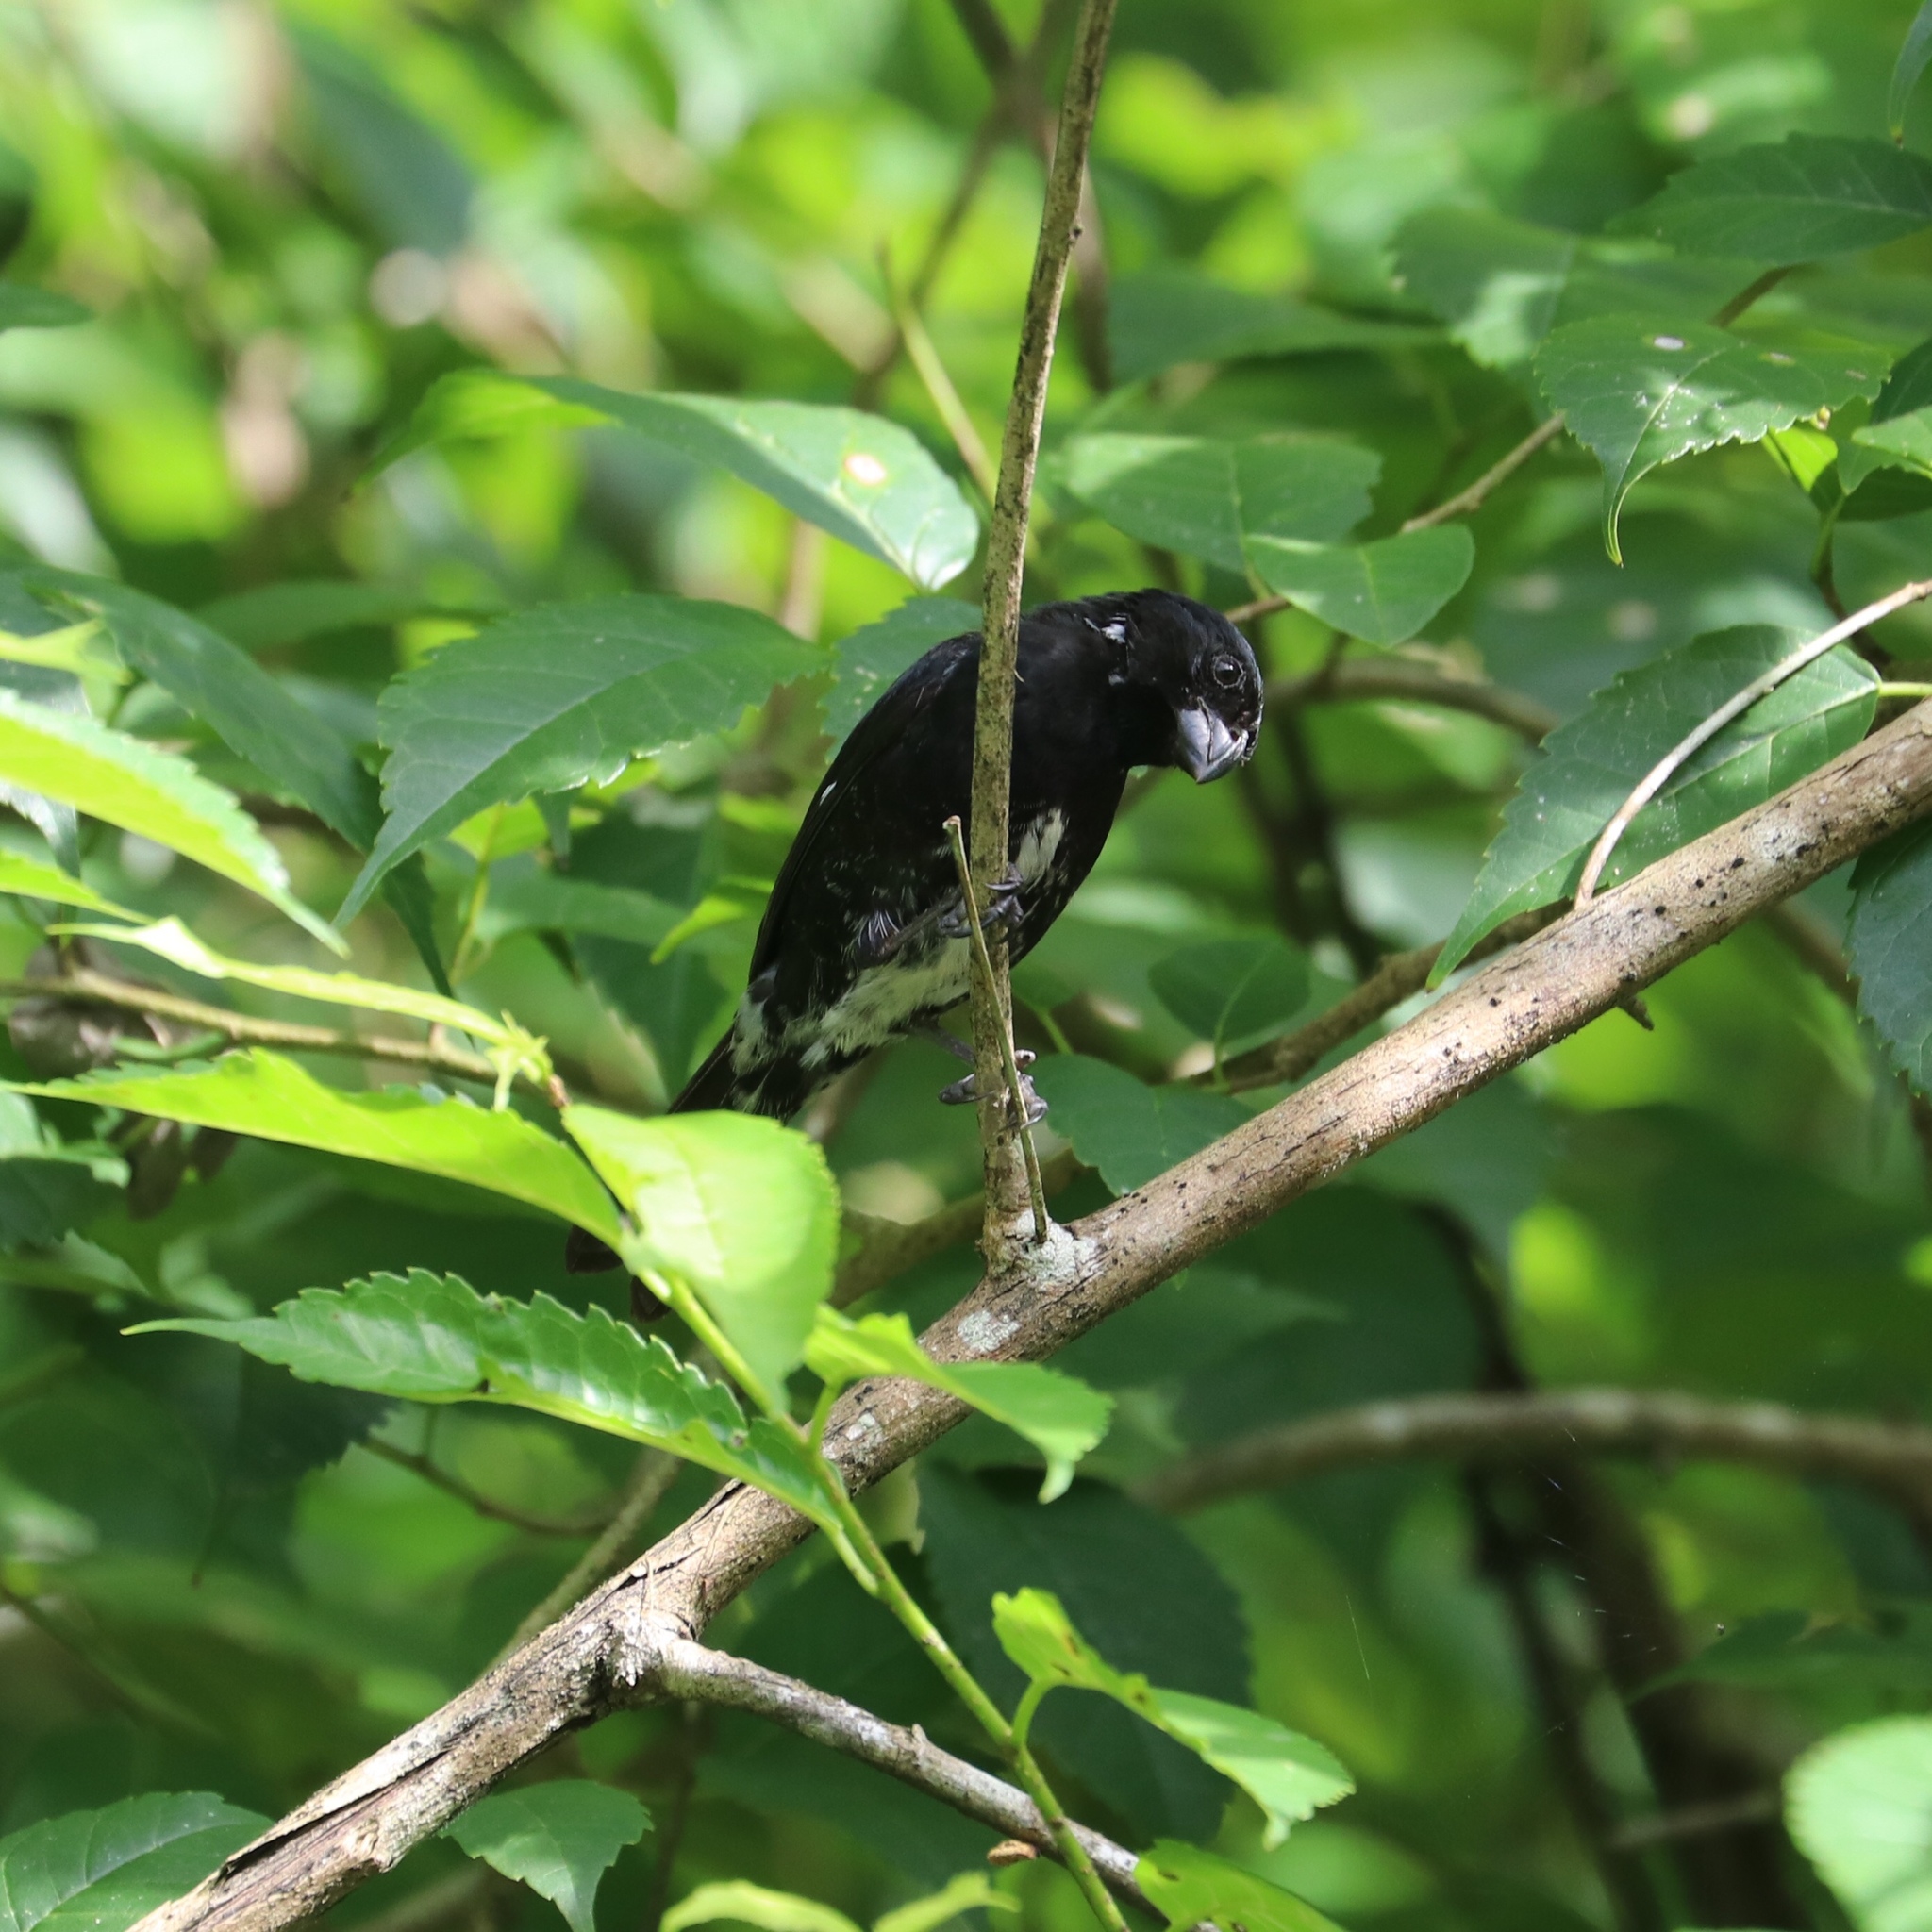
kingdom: Animalia
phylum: Chordata
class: Aves
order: Passeriformes
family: Thraupidae
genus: Sporophila
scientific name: Sporophila corvina
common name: Variable seedeater
